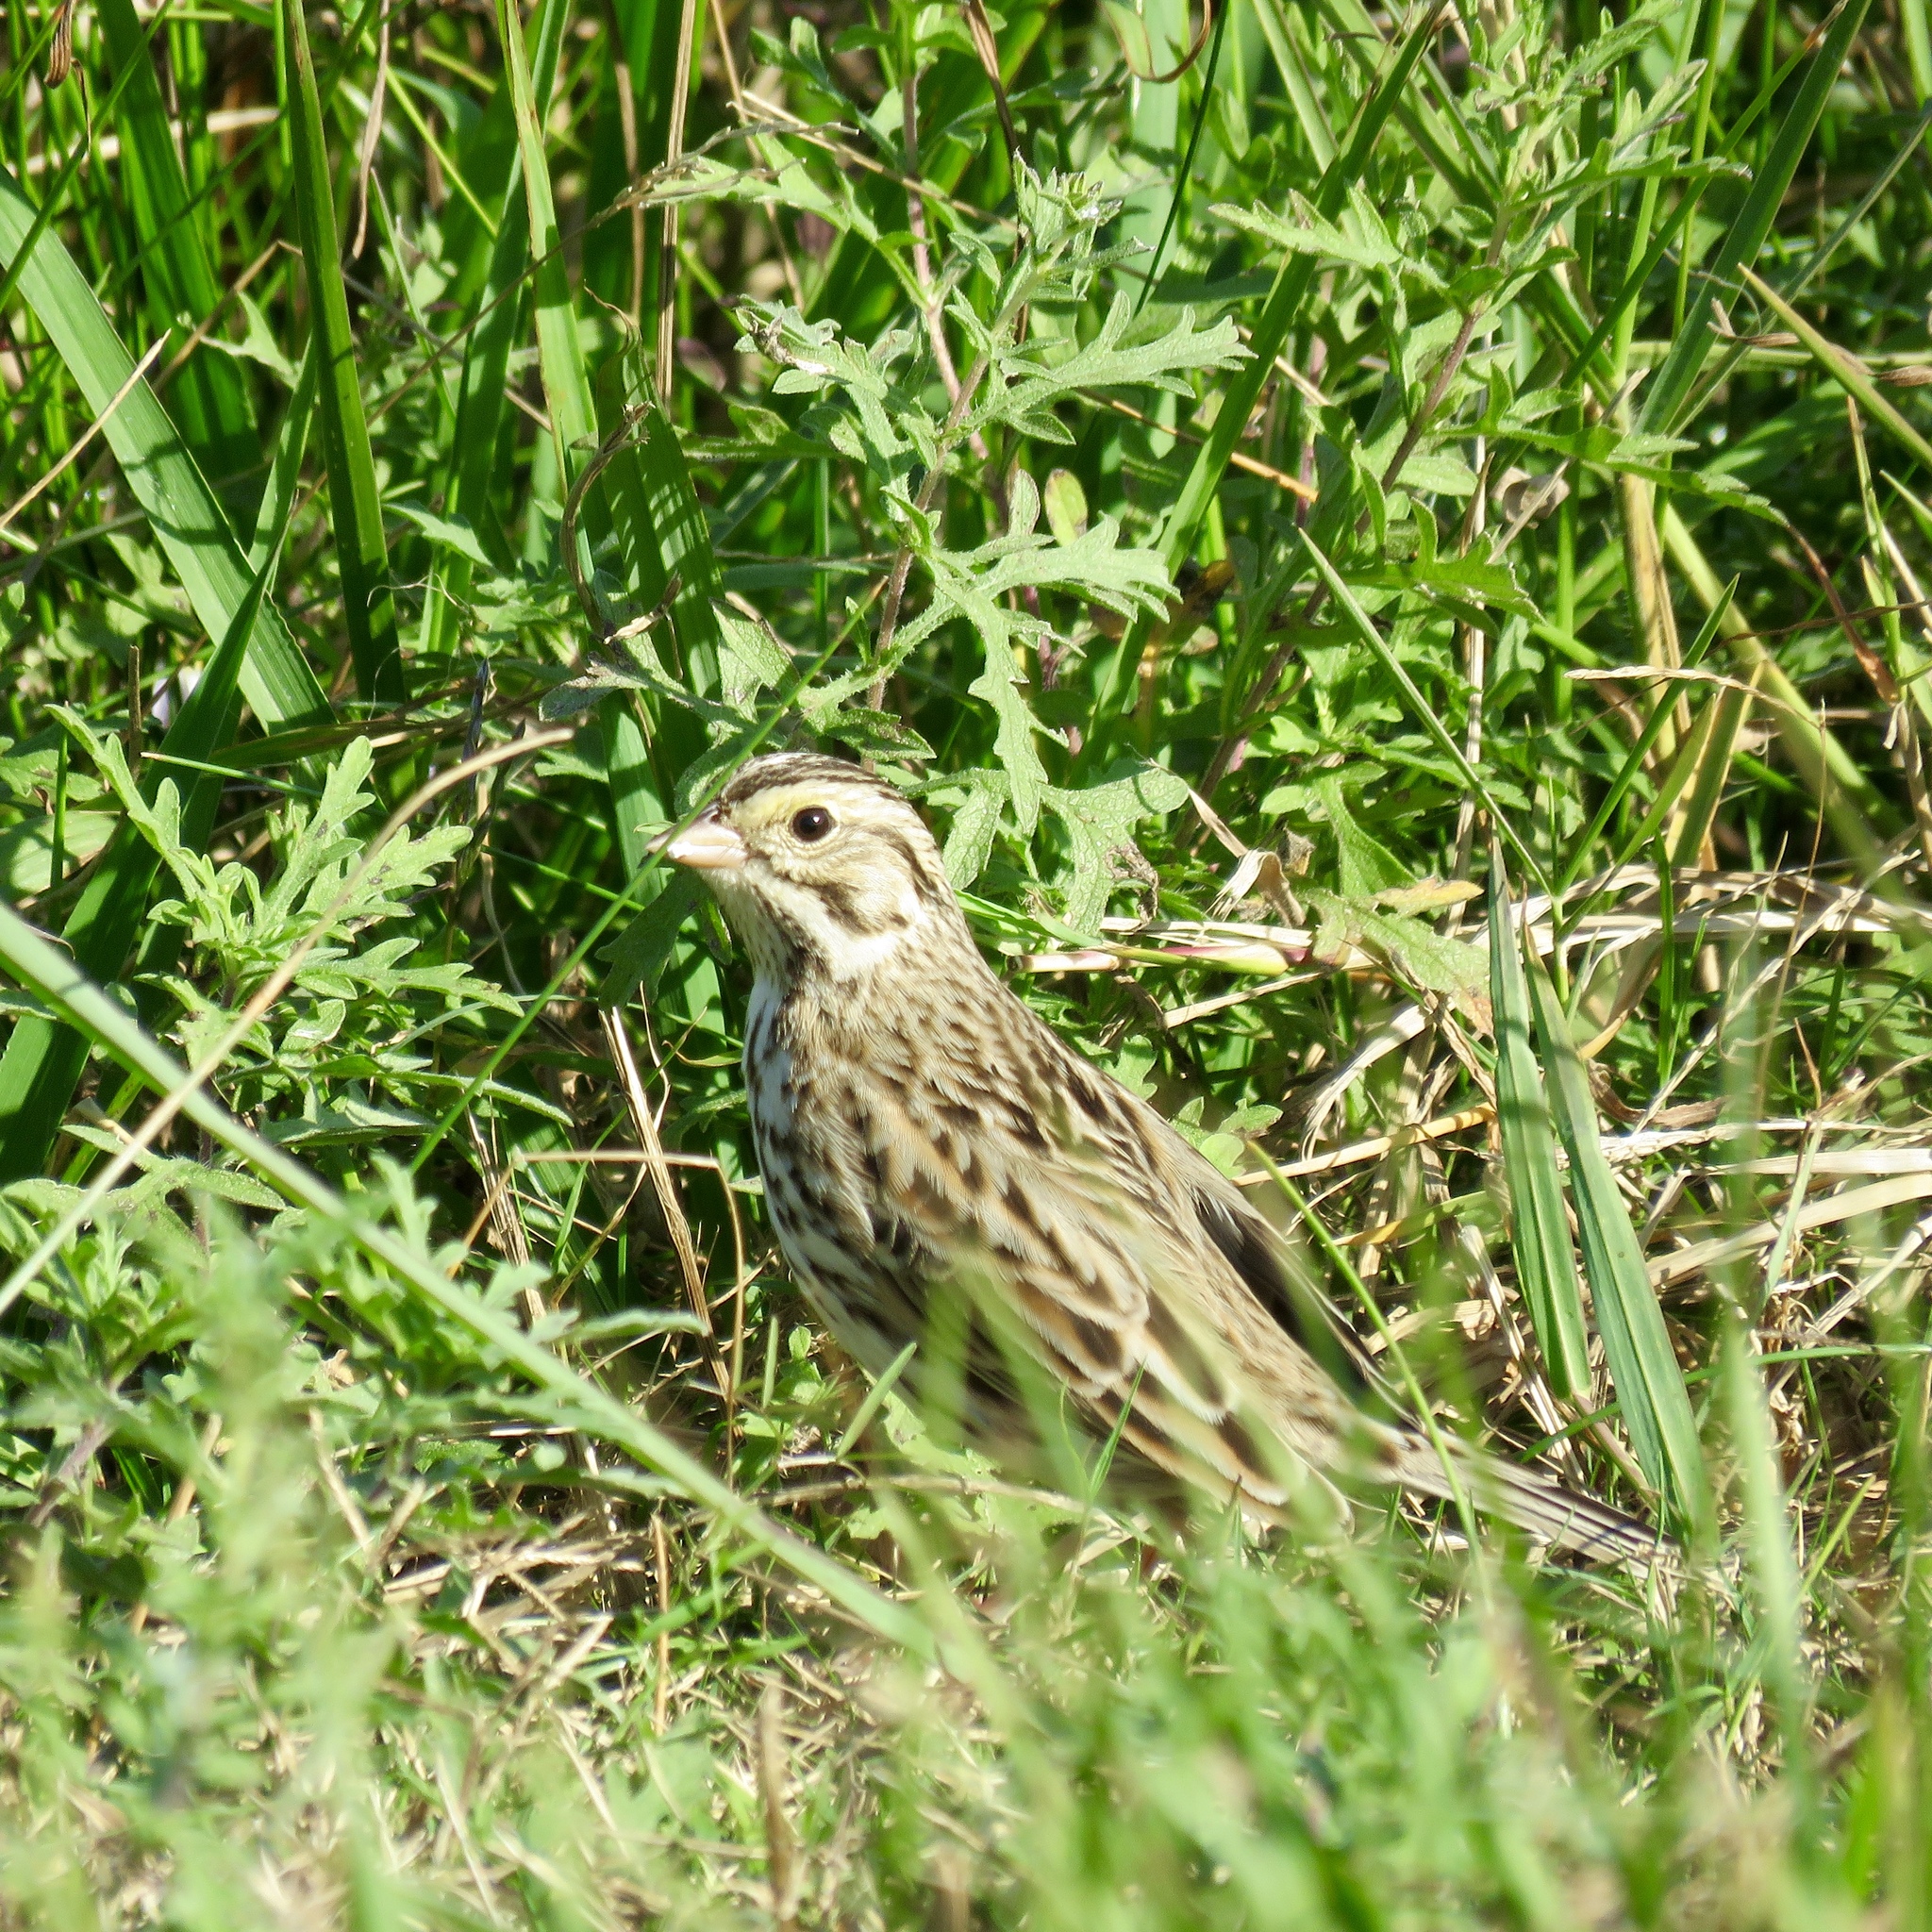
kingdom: Animalia
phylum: Chordata
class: Aves
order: Passeriformes
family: Passerellidae
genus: Passerculus
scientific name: Passerculus sandwichensis
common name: Savannah sparrow
